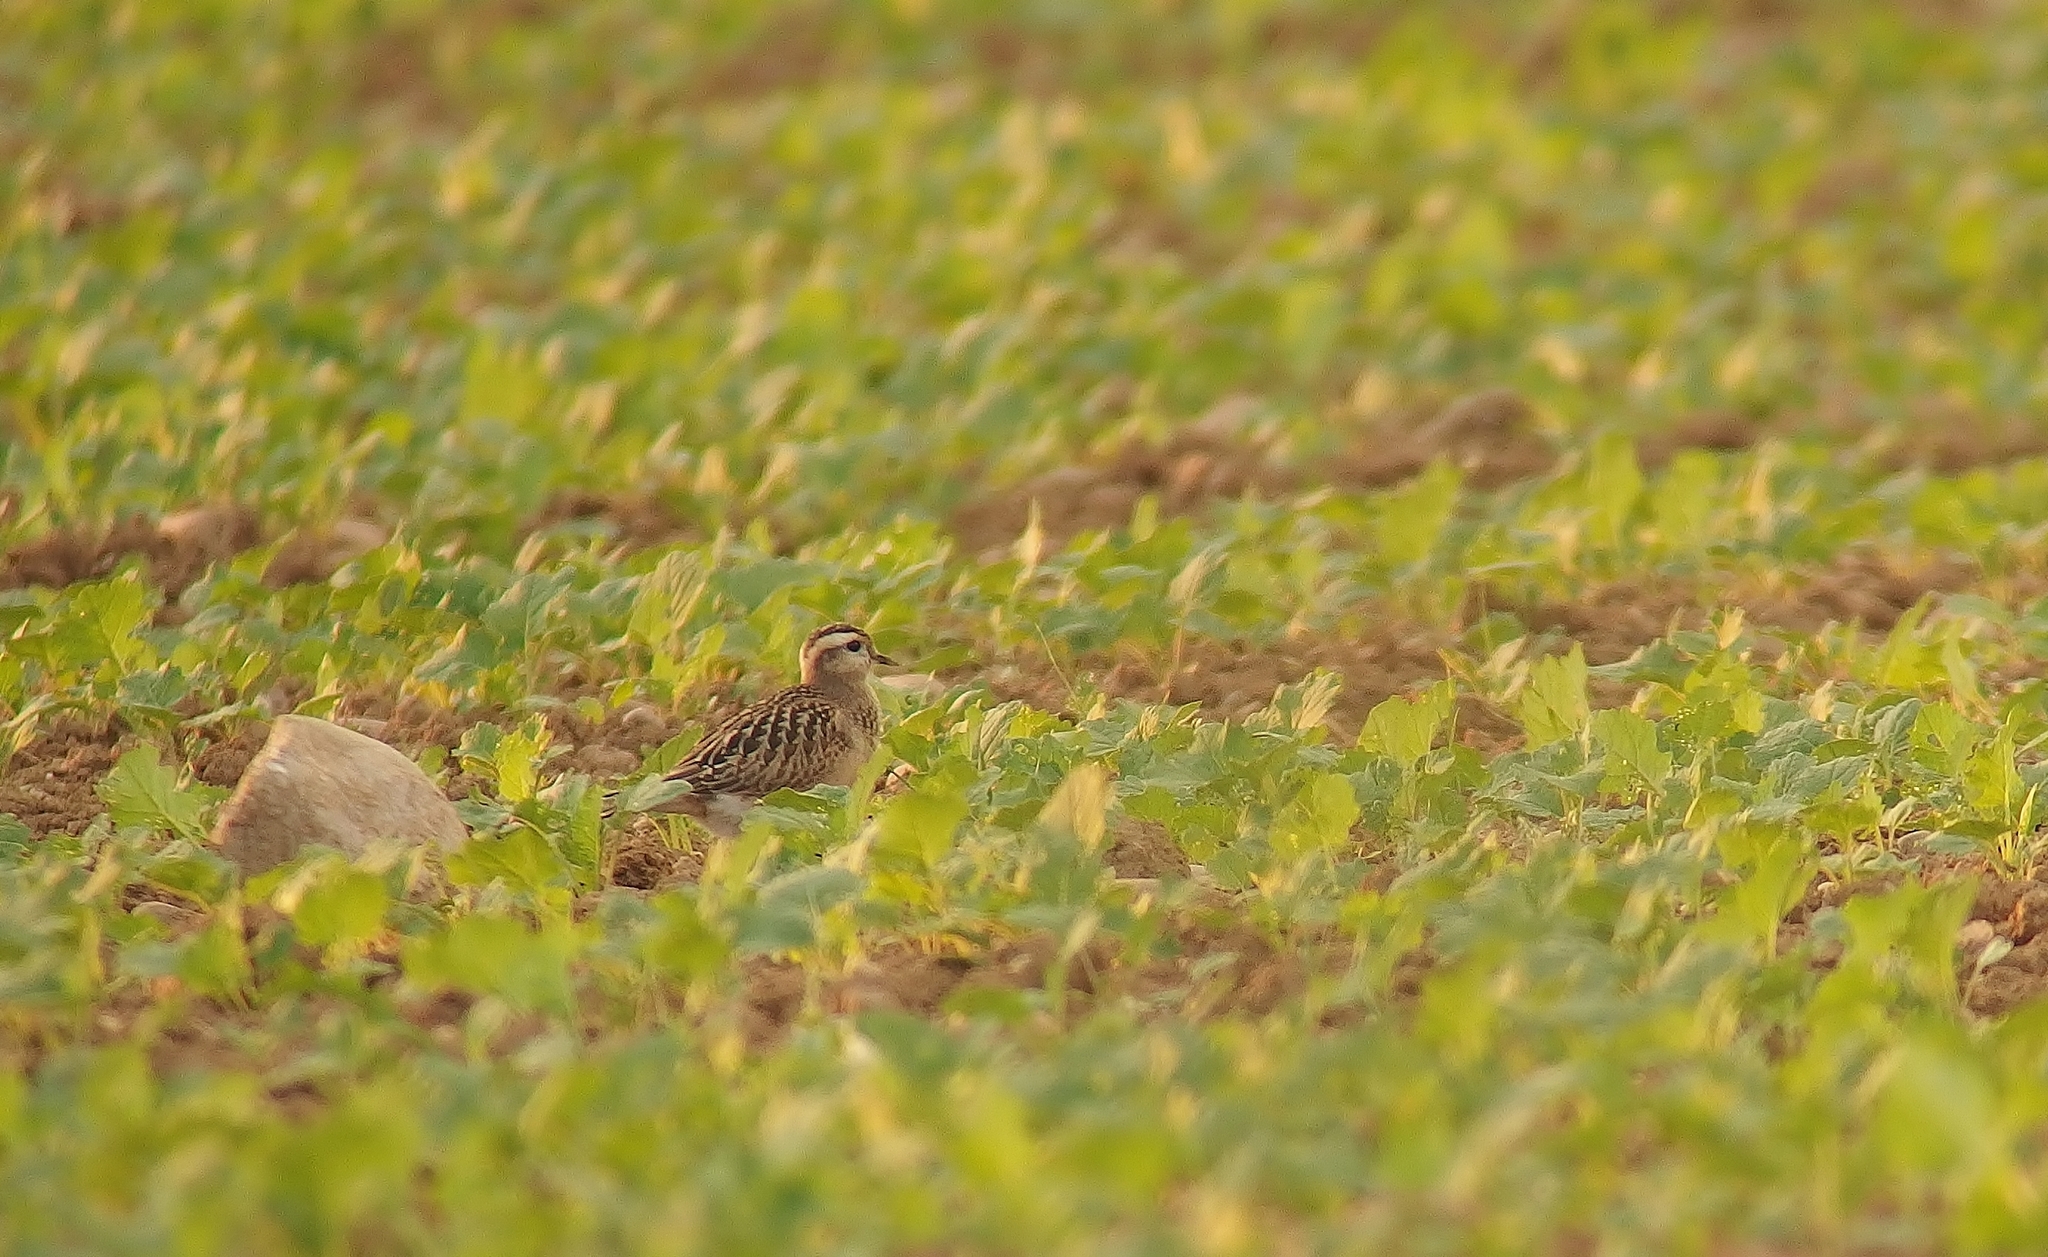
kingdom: Animalia
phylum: Chordata
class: Aves
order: Charadriiformes
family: Charadriidae
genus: Charadrius
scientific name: Charadrius morinellus
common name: Eurasian dotterel
